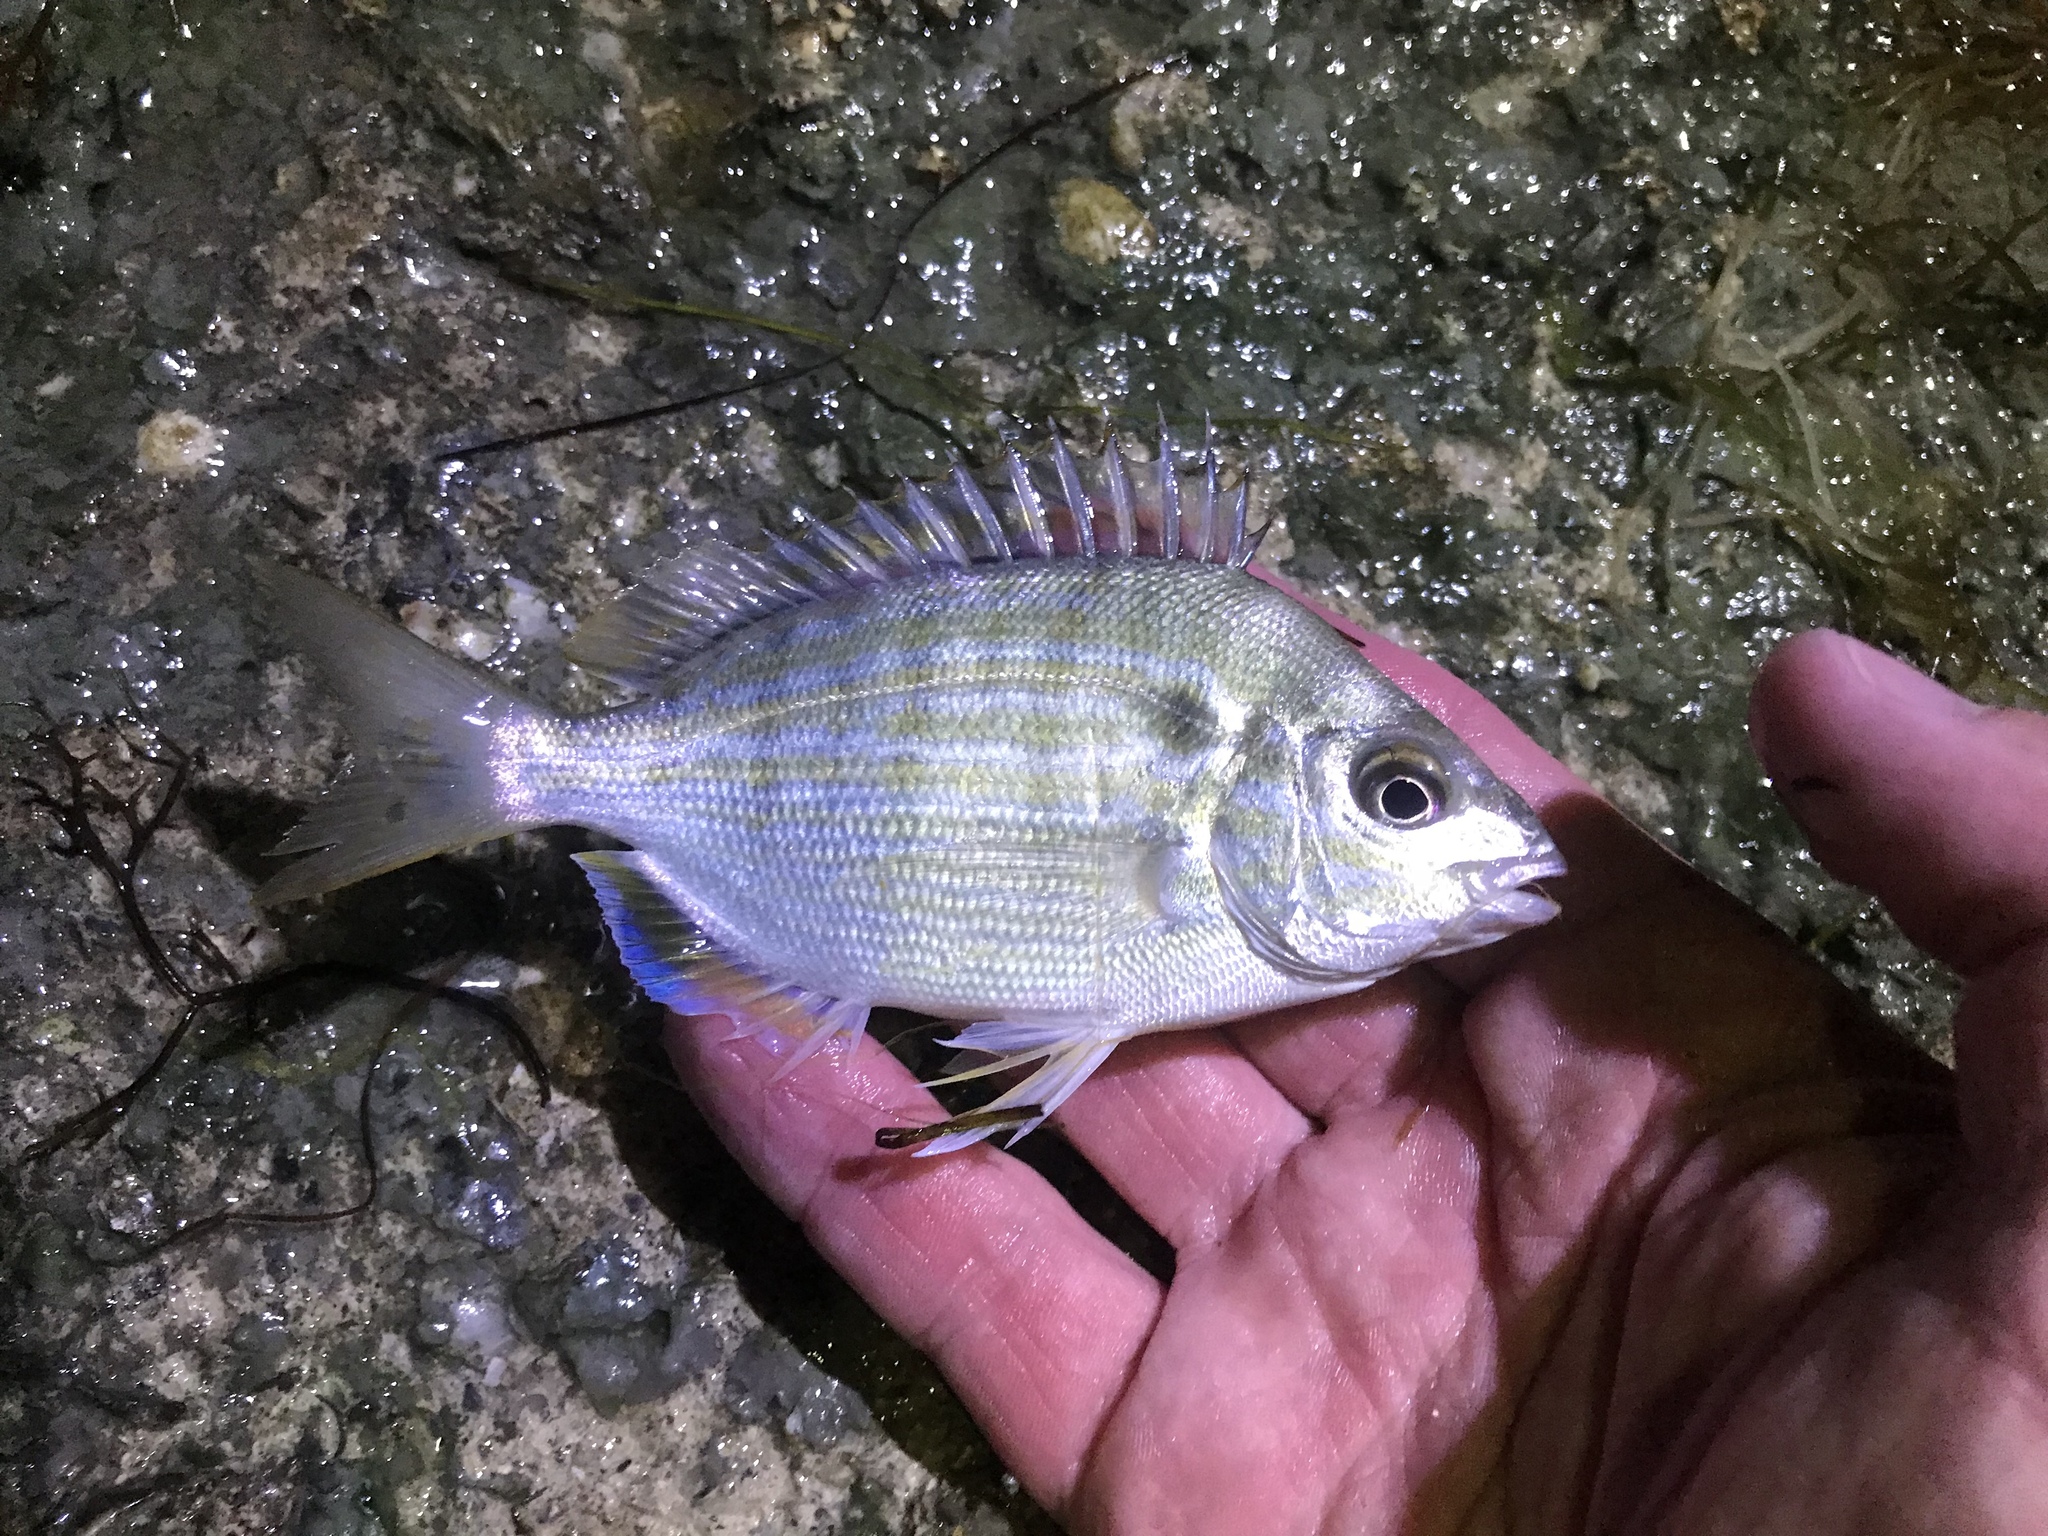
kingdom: Animalia
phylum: Chordata
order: Perciformes
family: Sparidae
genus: Lagodon
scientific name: Lagodon rhomboides
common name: Pinfish
